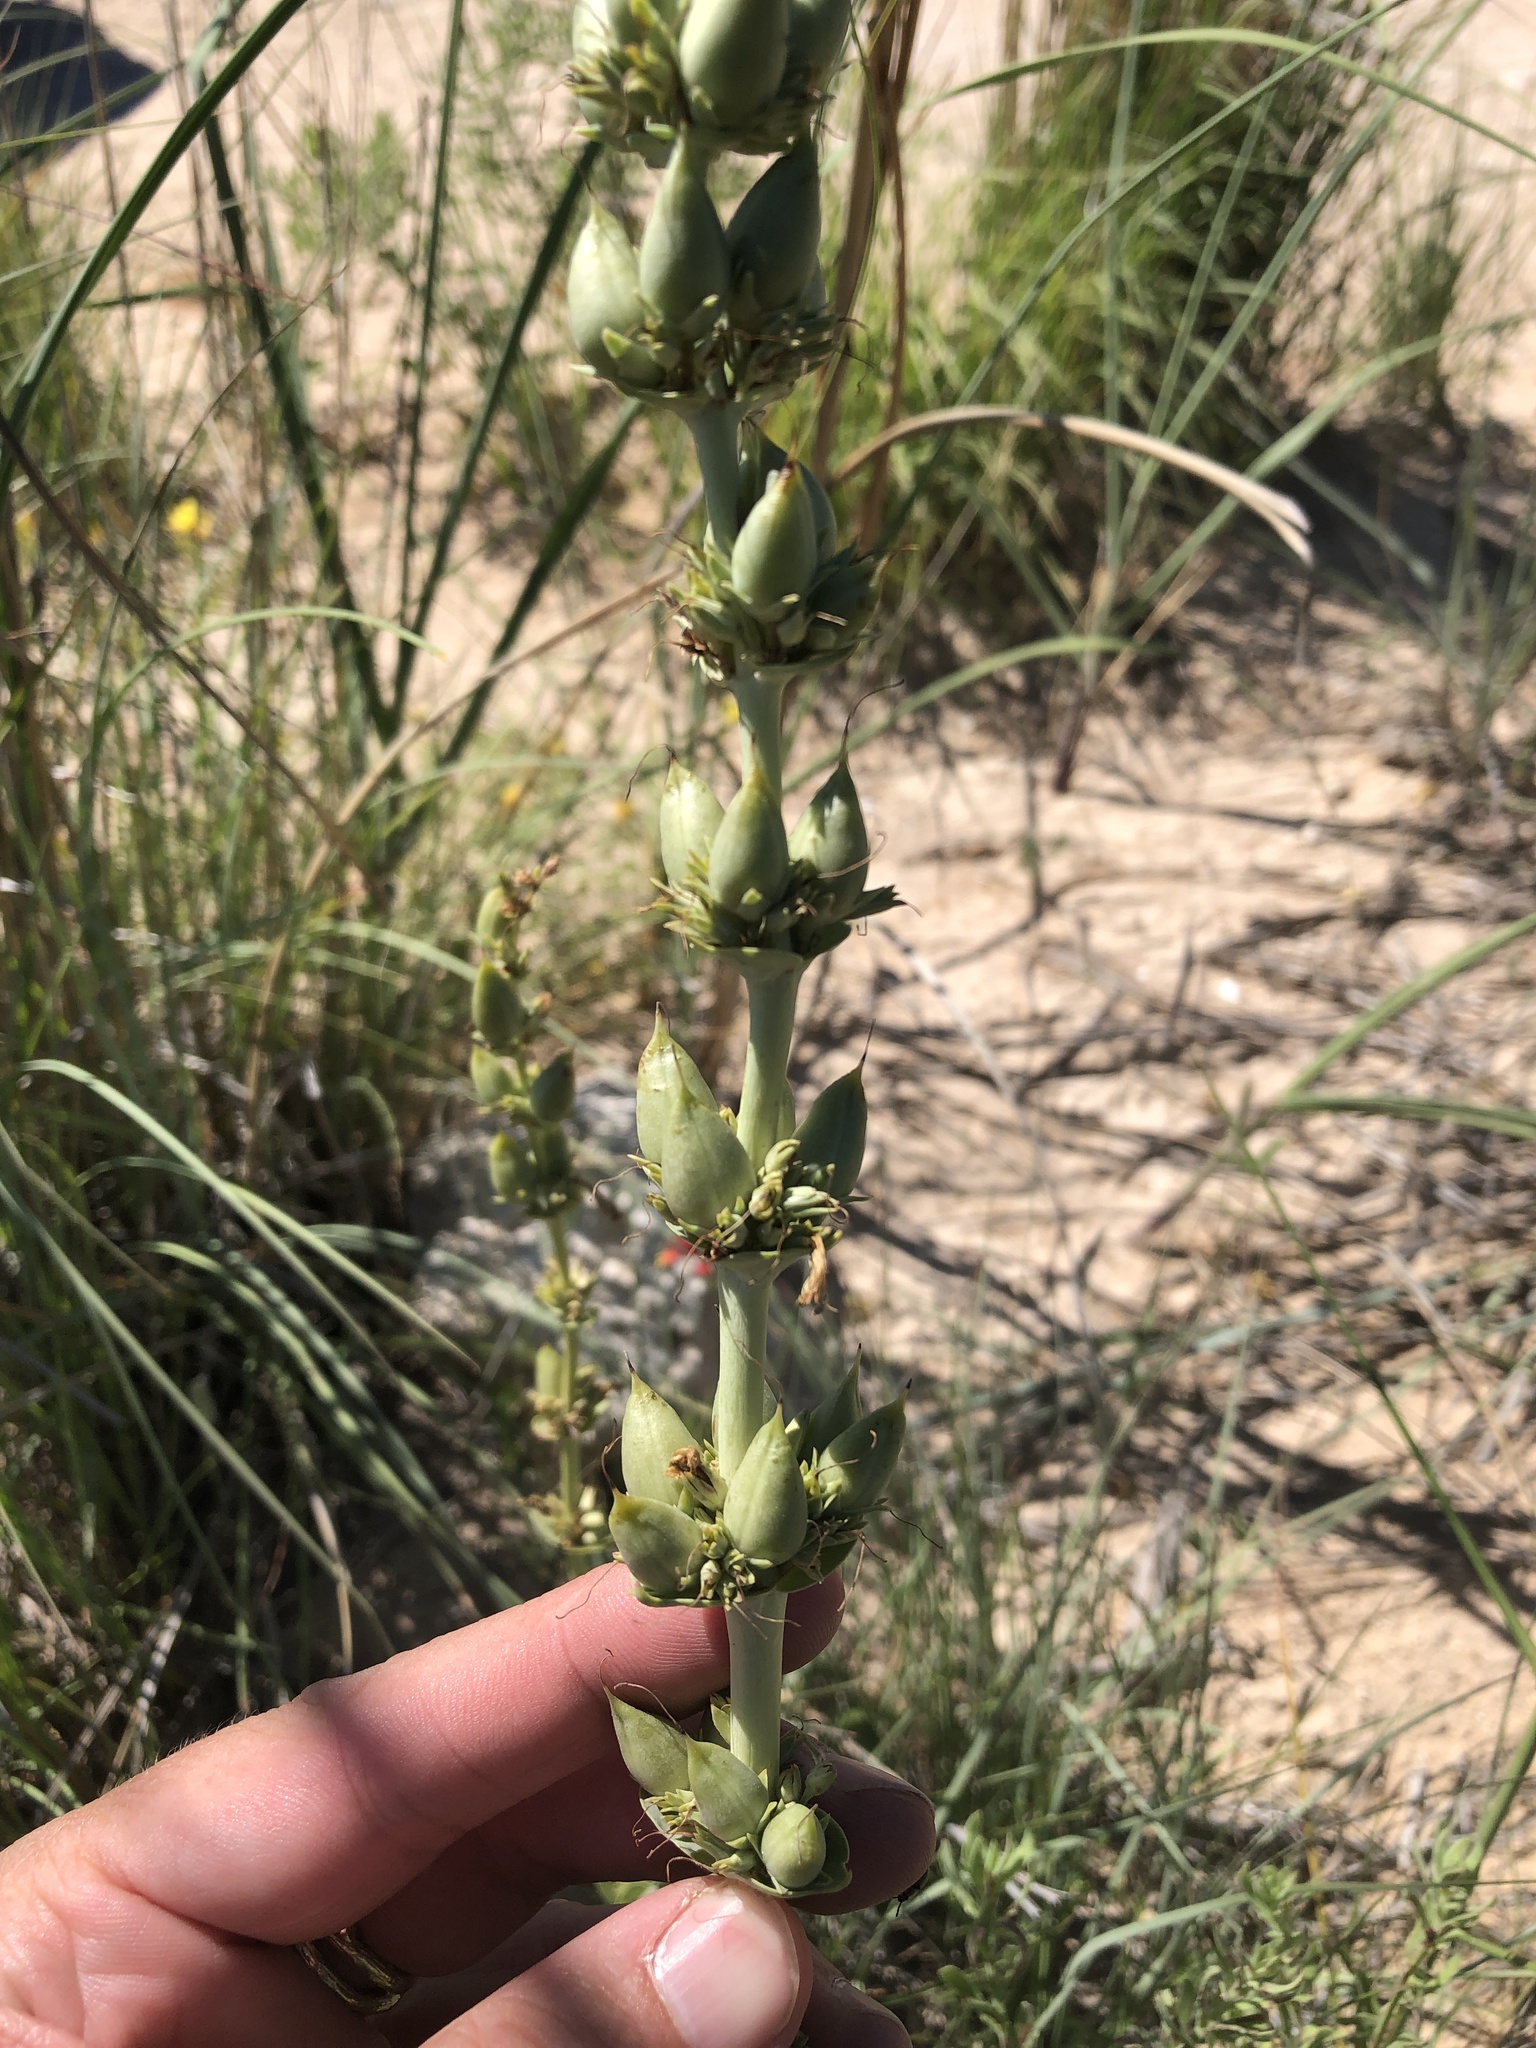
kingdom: Plantae
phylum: Tracheophyta
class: Magnoliopsida
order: Lamiales
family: Plantaginaceae
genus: Penstemon
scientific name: Penstemon buckleyi
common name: Buckley's penstemon
